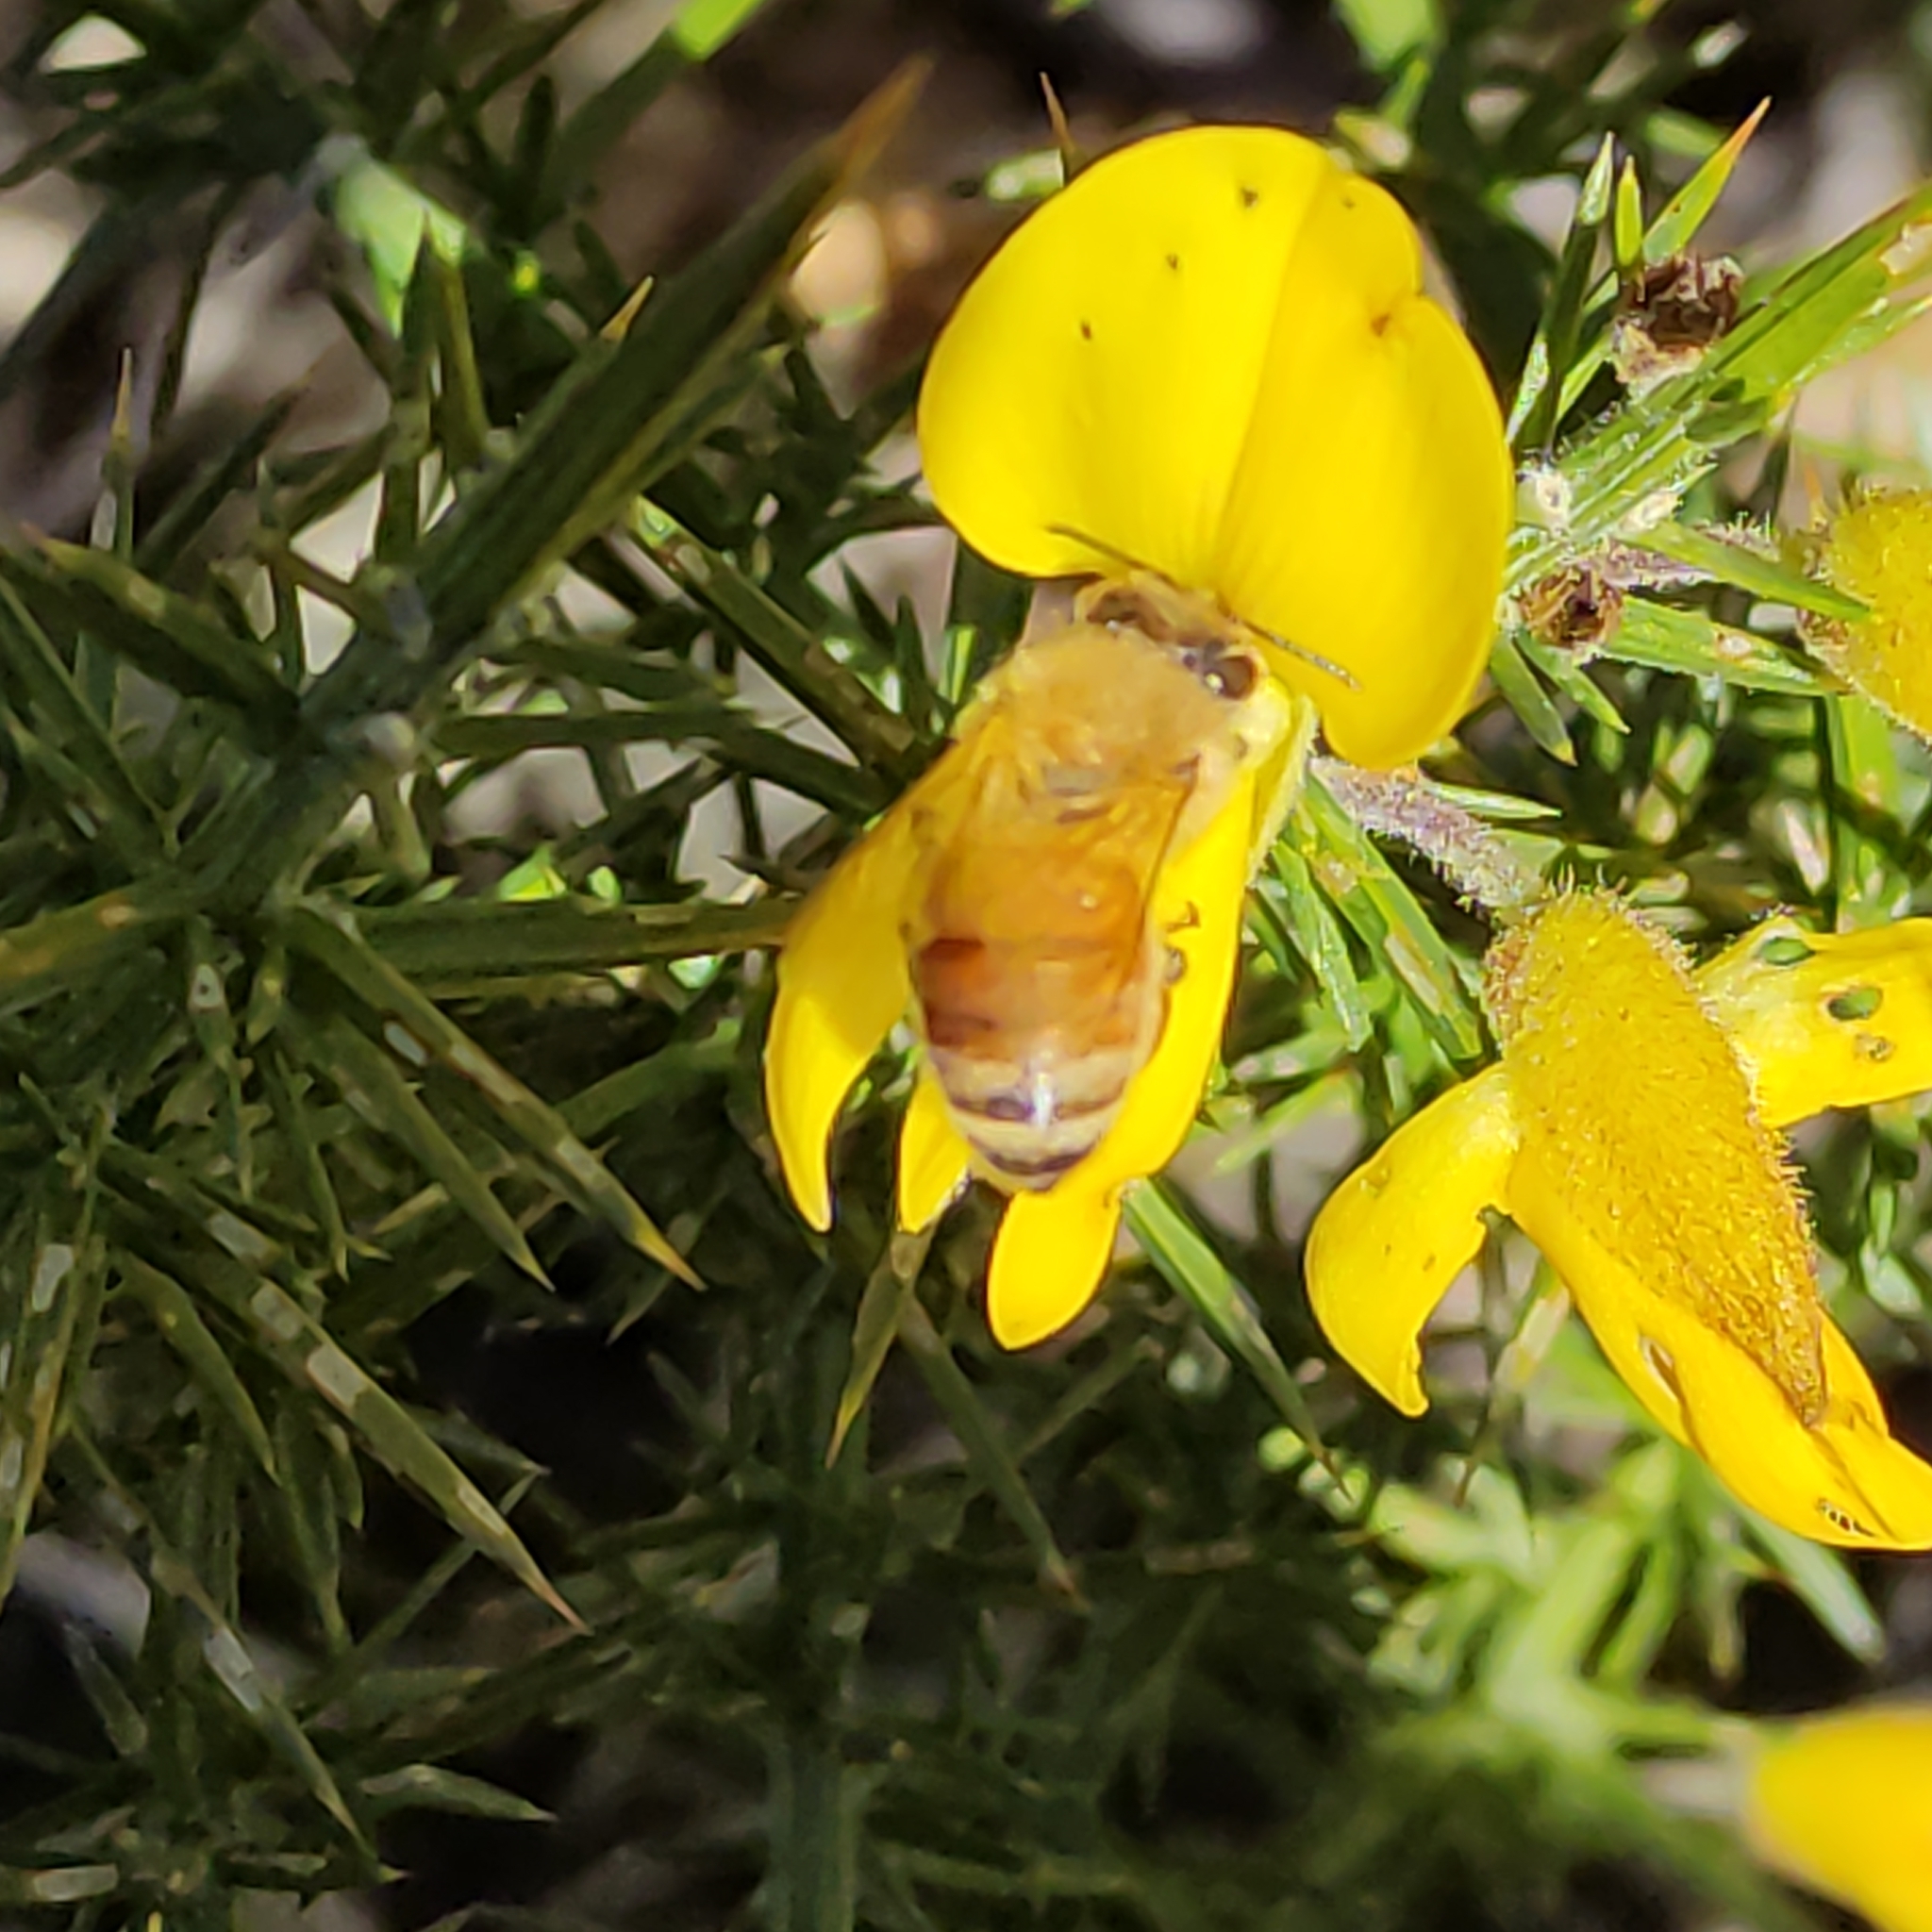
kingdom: Animalia
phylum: Arthropoda
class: Insecta
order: Hymenoptera
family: Apidae
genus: Apis
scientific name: Apis mellifera
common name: Honey bee
